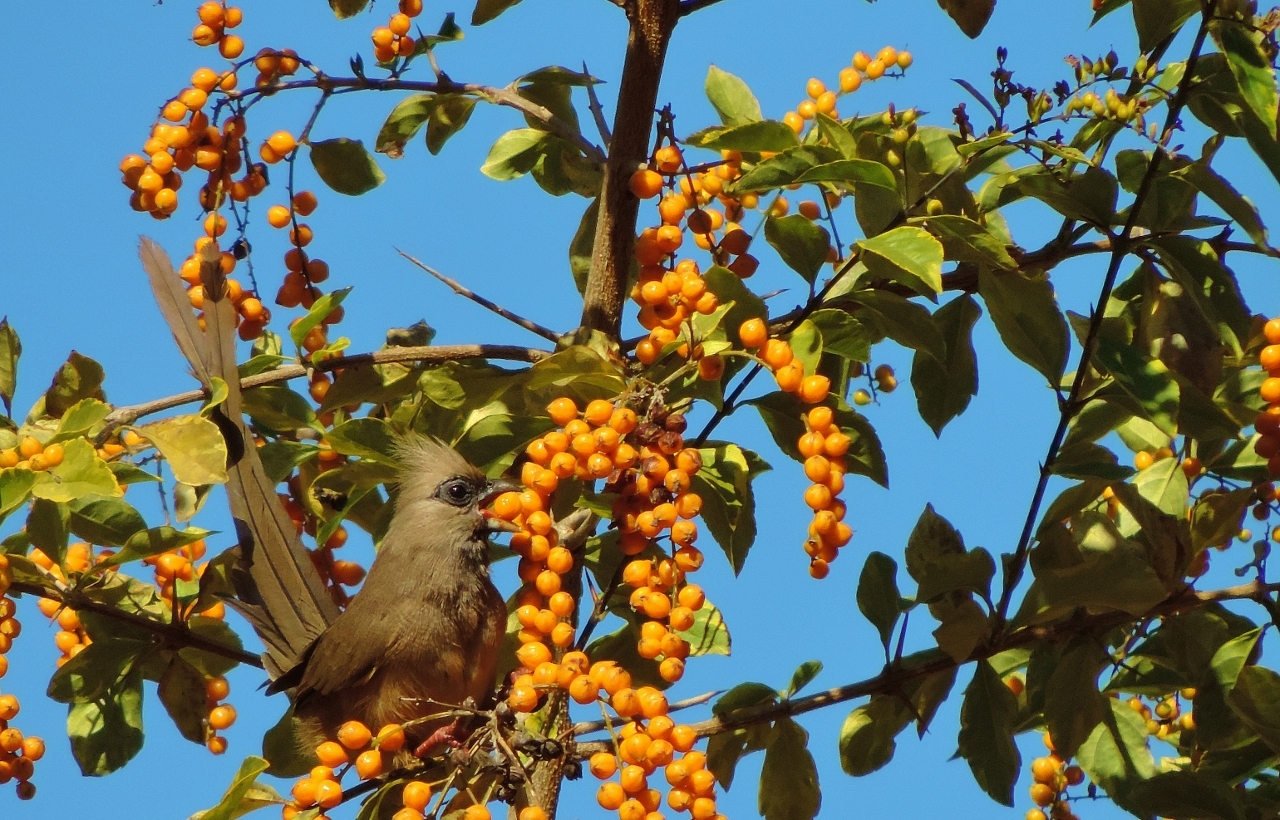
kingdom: Animalia
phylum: Chordata
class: Aves
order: Coliiformes
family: Coliidae
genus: Colius
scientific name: Colius striatus
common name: Speckled mousebird
